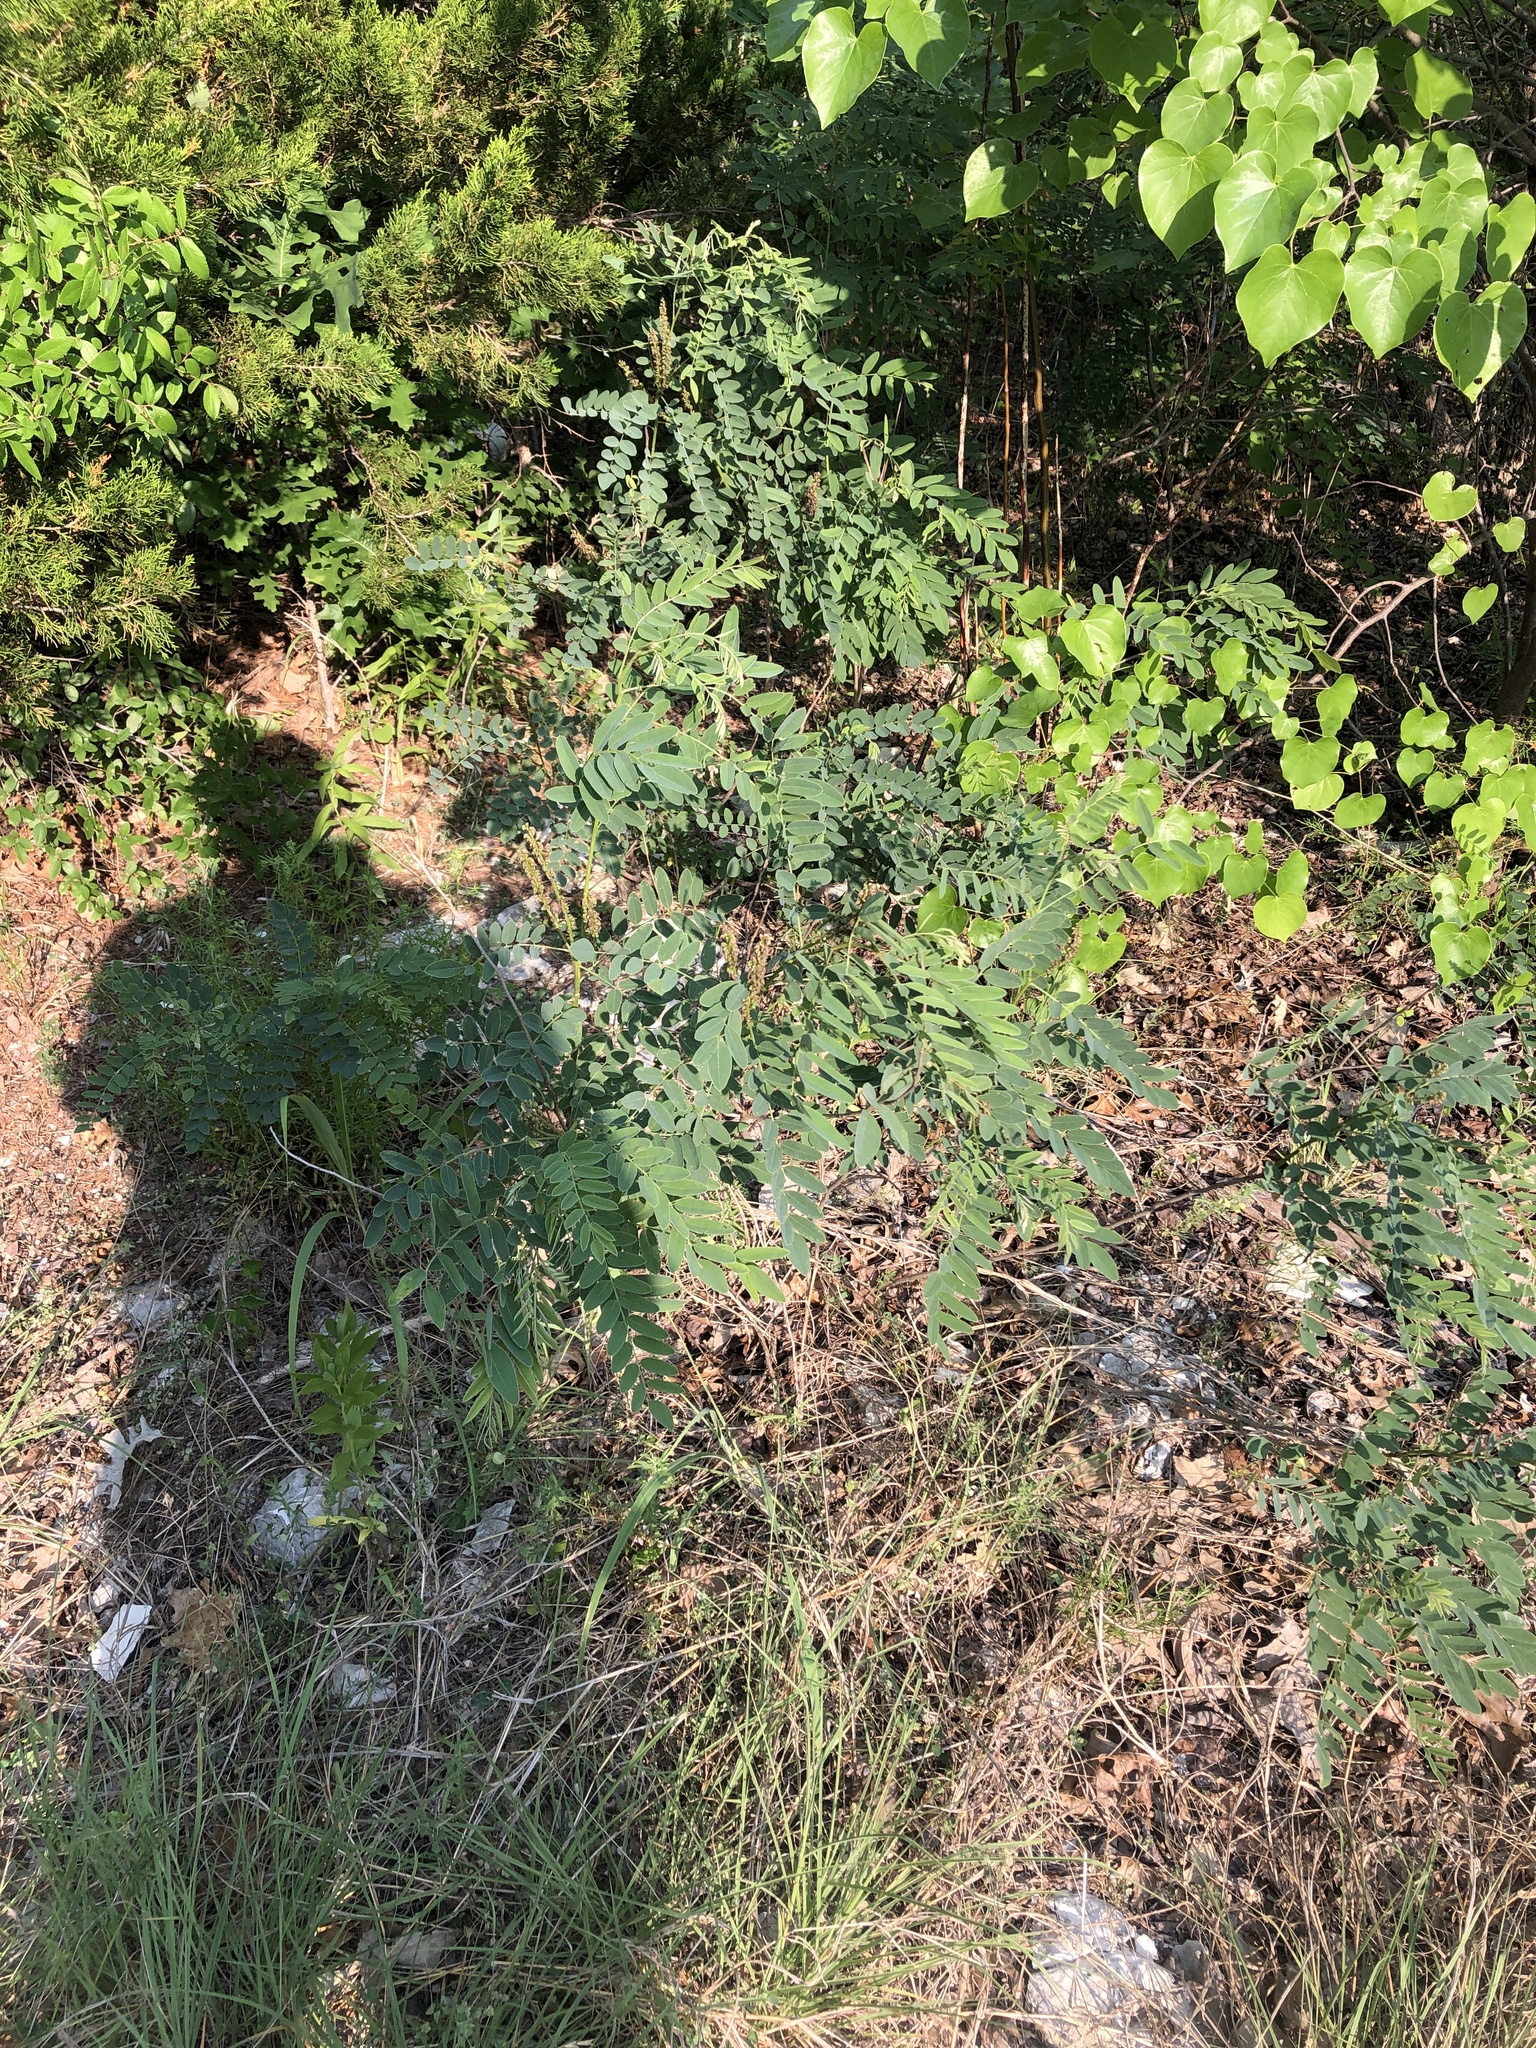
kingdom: Plantae
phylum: Tracheophyta
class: Magnoliopsida
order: Fabales
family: Fabaceae
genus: Amorpha
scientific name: Amorpha fruticosa
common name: False indigo
